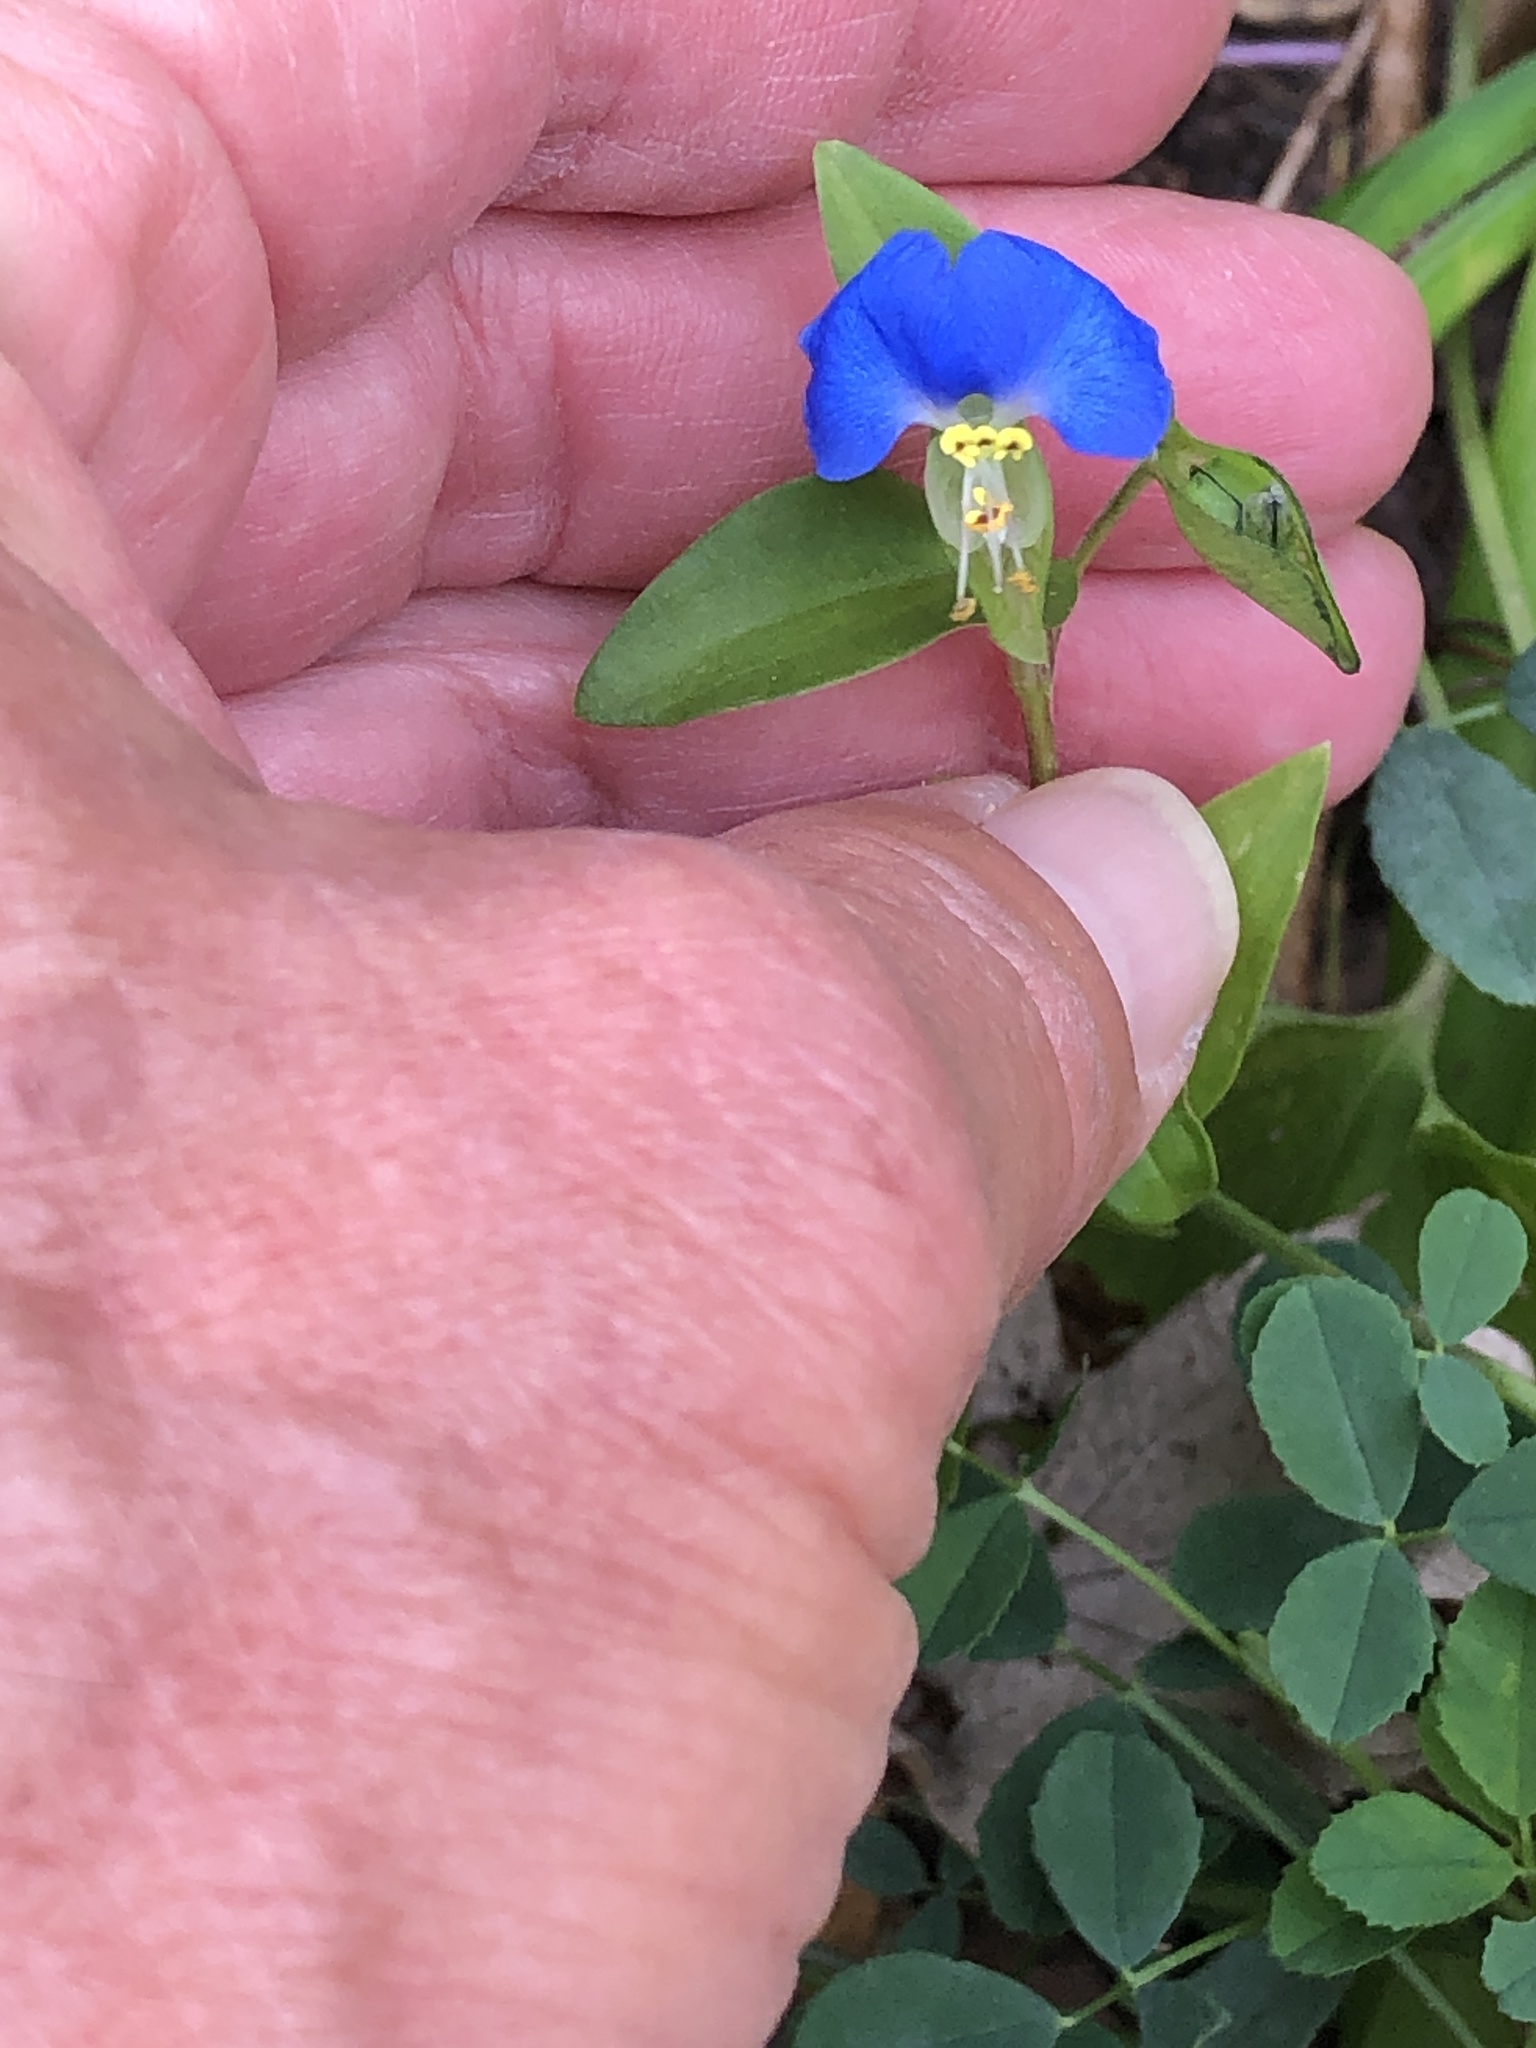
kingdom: Plantae
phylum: Tracheophyta
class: Liliopsida
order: Commelinales
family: Commelinaceae
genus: Commelina
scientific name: Commelina communis
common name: Asiatic dayflower
